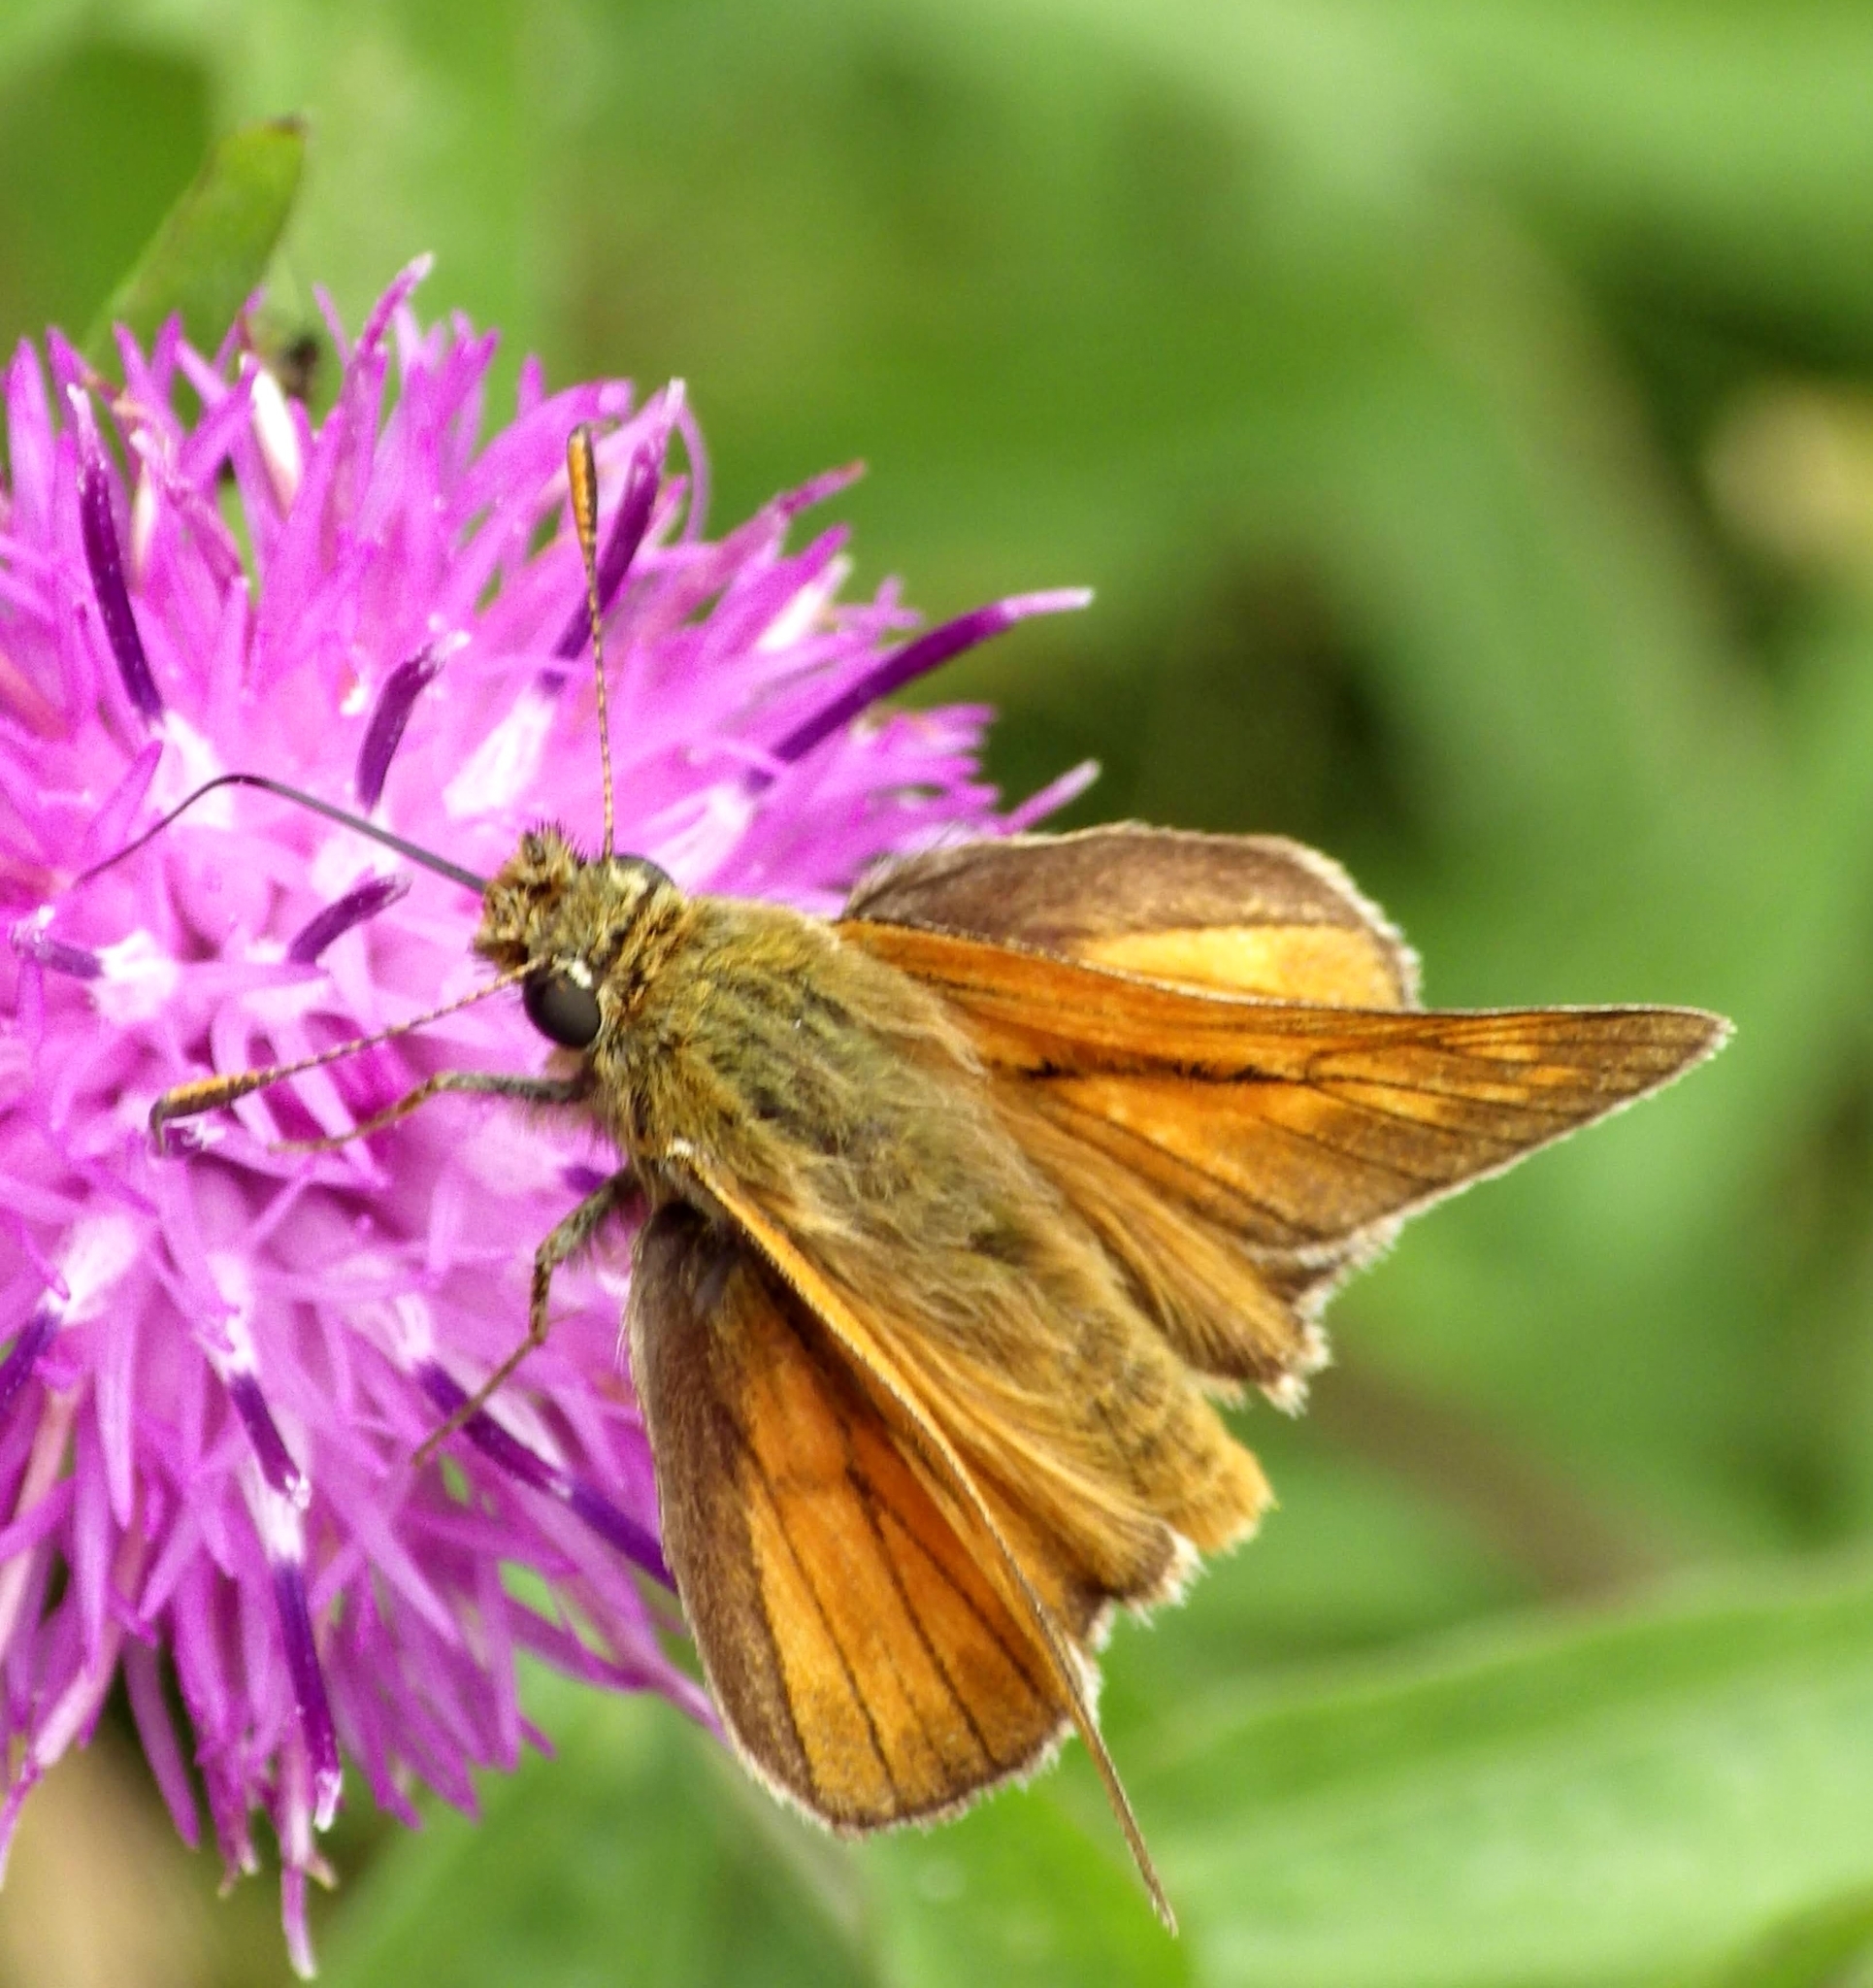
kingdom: Animalia
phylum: Arthropoda
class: Insecta
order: Lepidoptera
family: Hesperiidae
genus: Ochlodes
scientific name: Ochlodes venata
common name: Large skipper
